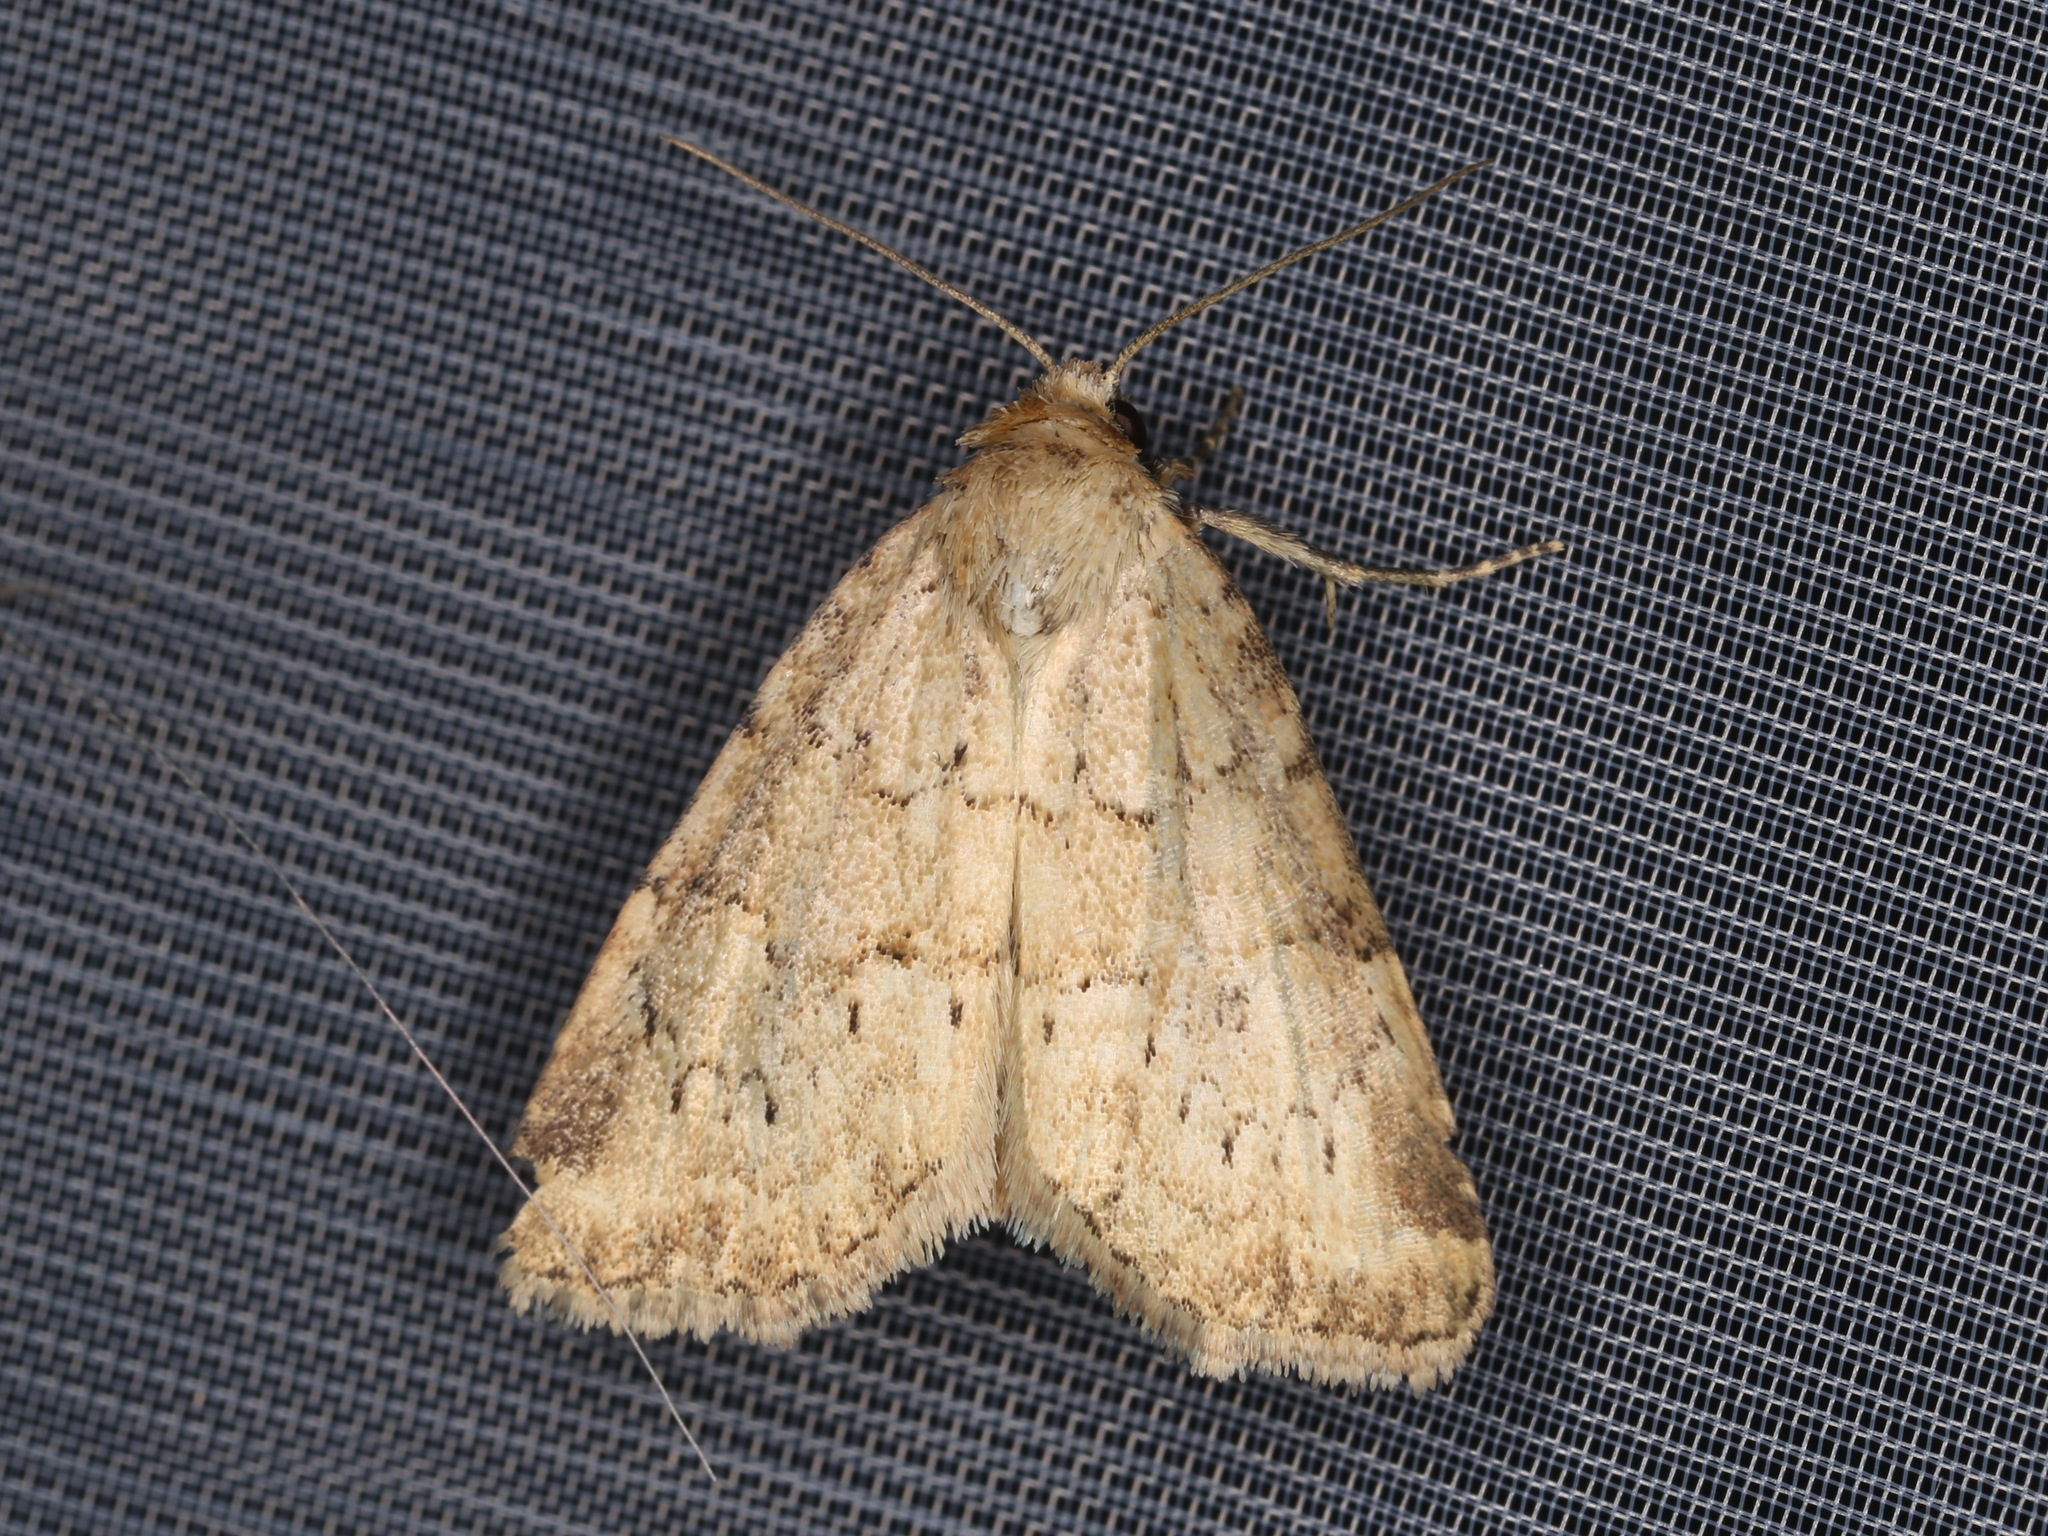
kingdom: Animalia
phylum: Arthropoda
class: Insecta
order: Lepidoptera
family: Noctuidae
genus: Photedes
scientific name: Photedes minima
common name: Small dotted buff
